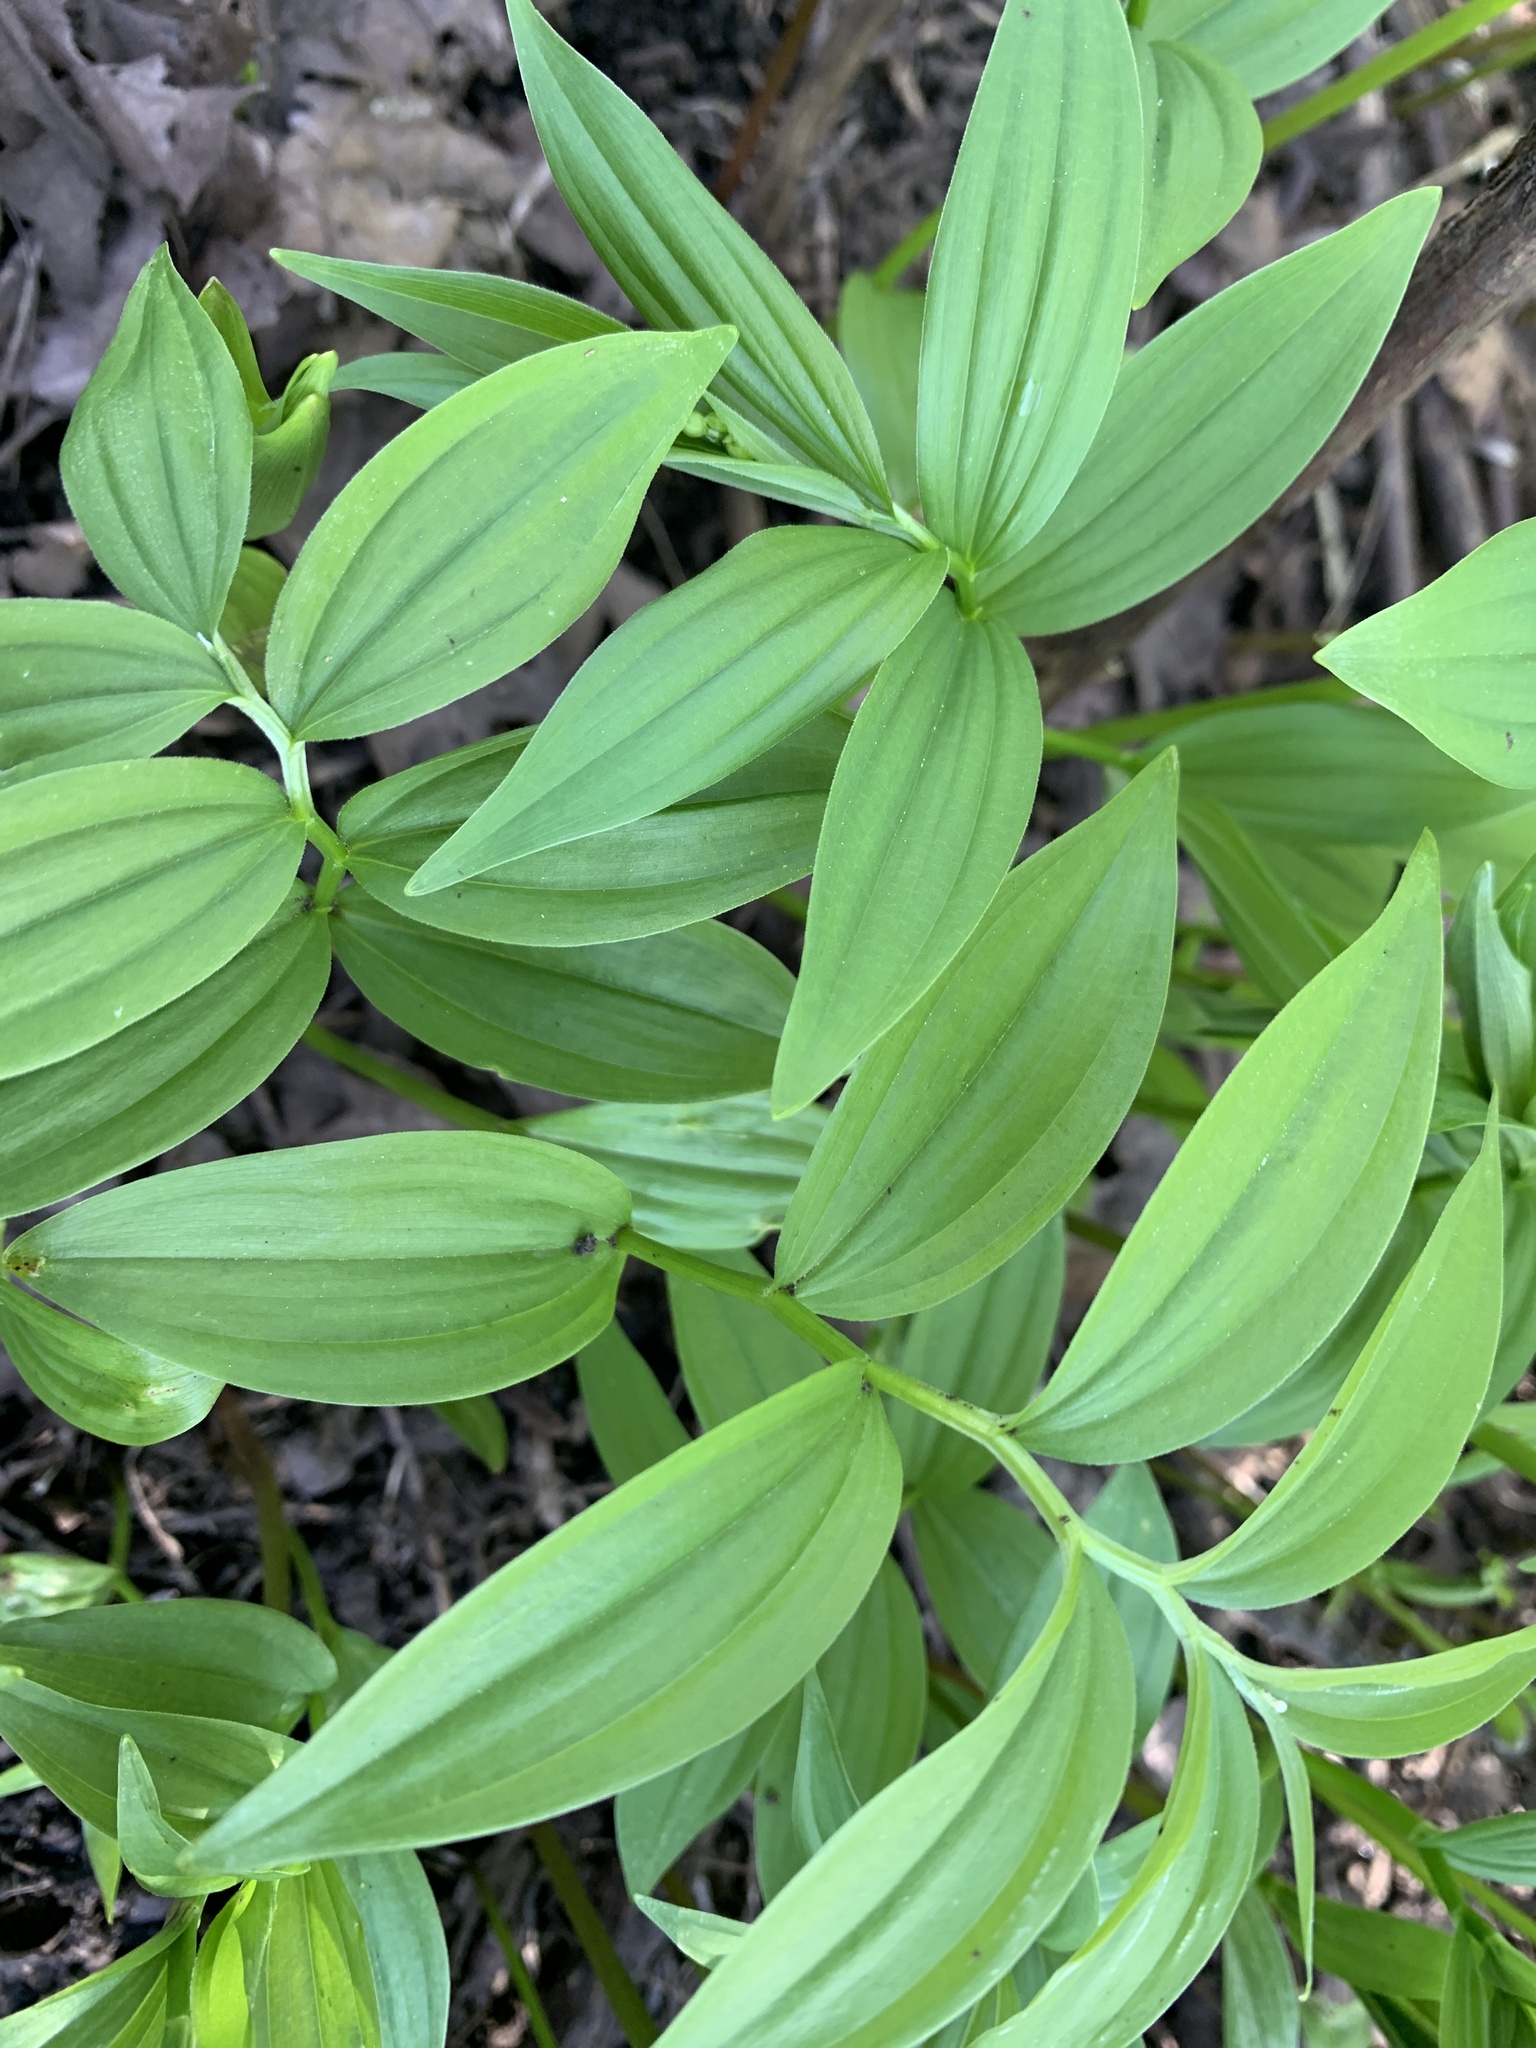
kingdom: Plantae
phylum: Tracheophyta
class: Liliopsida
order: Asparagales
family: Asparagaceae
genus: Maianthemum
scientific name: Maianthemum stellatum
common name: Little false solomon's seal
